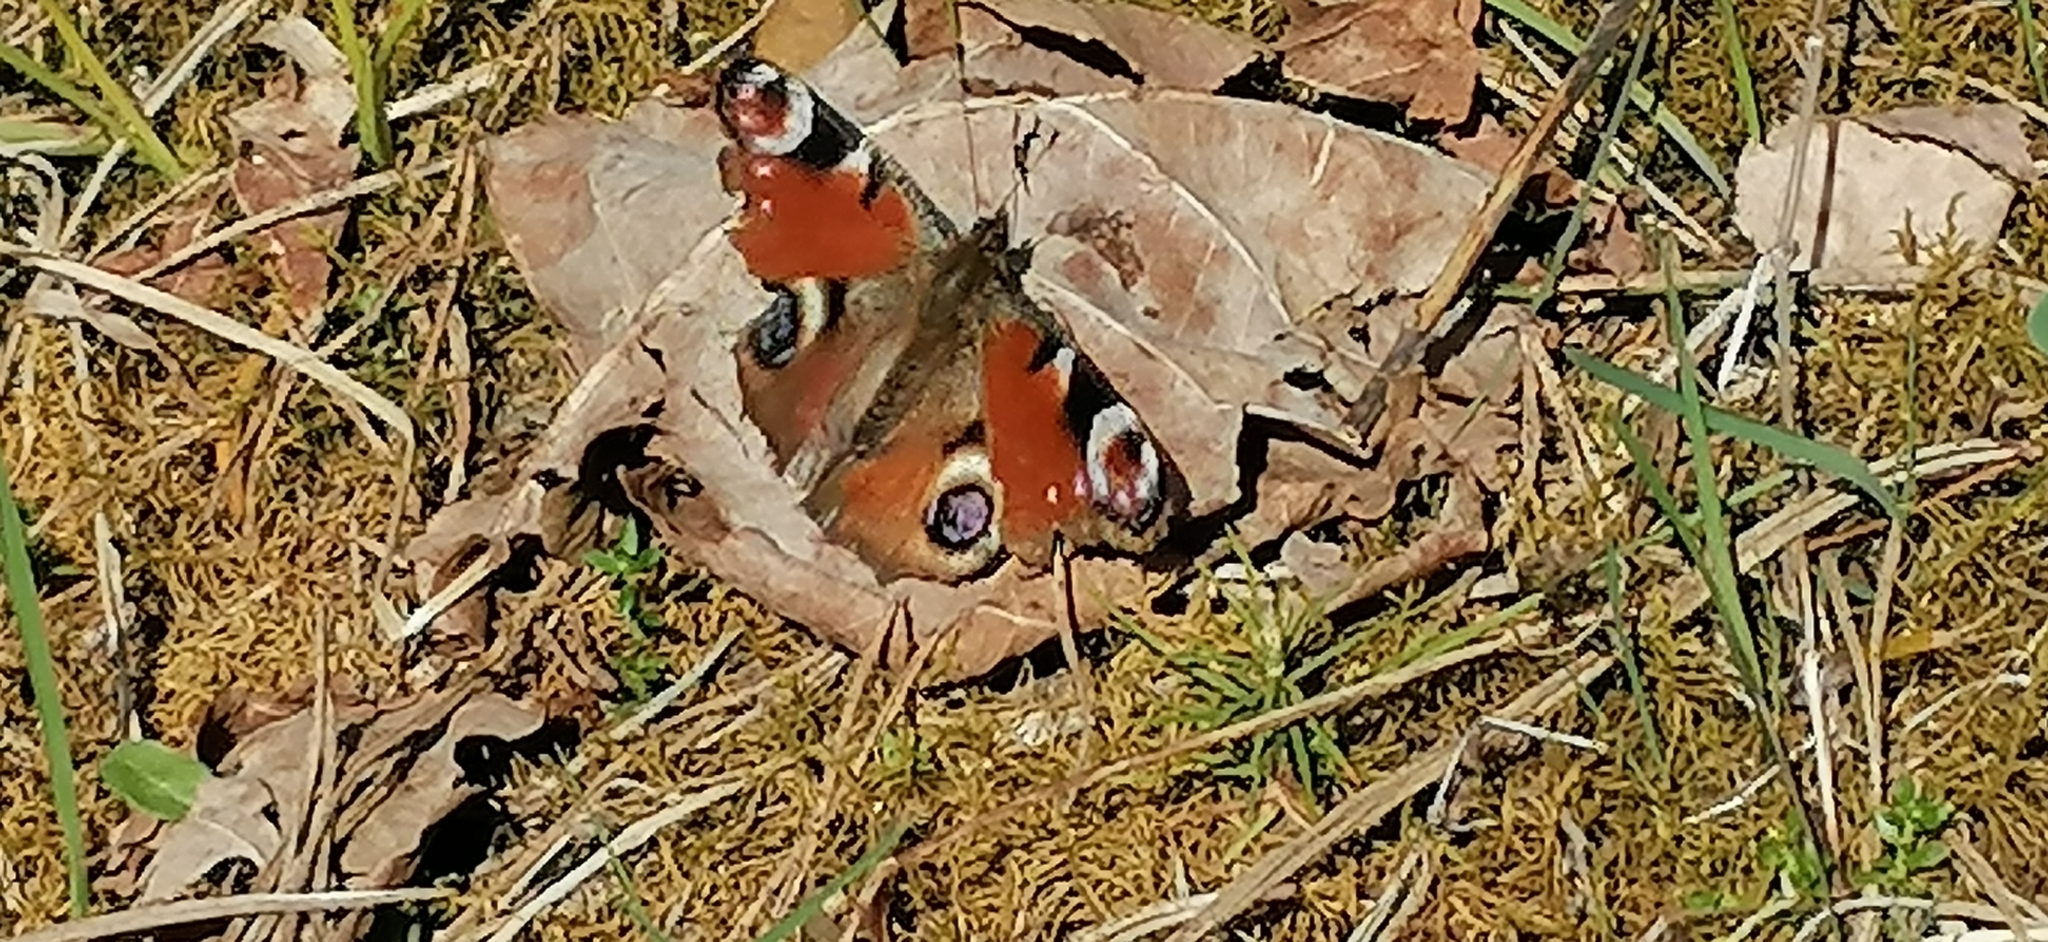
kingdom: Animalia
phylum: Arthropoda
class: Insecta
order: Lepidoptera
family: Nymphalidae
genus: Aglais
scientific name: Aglais io
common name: Peacock
